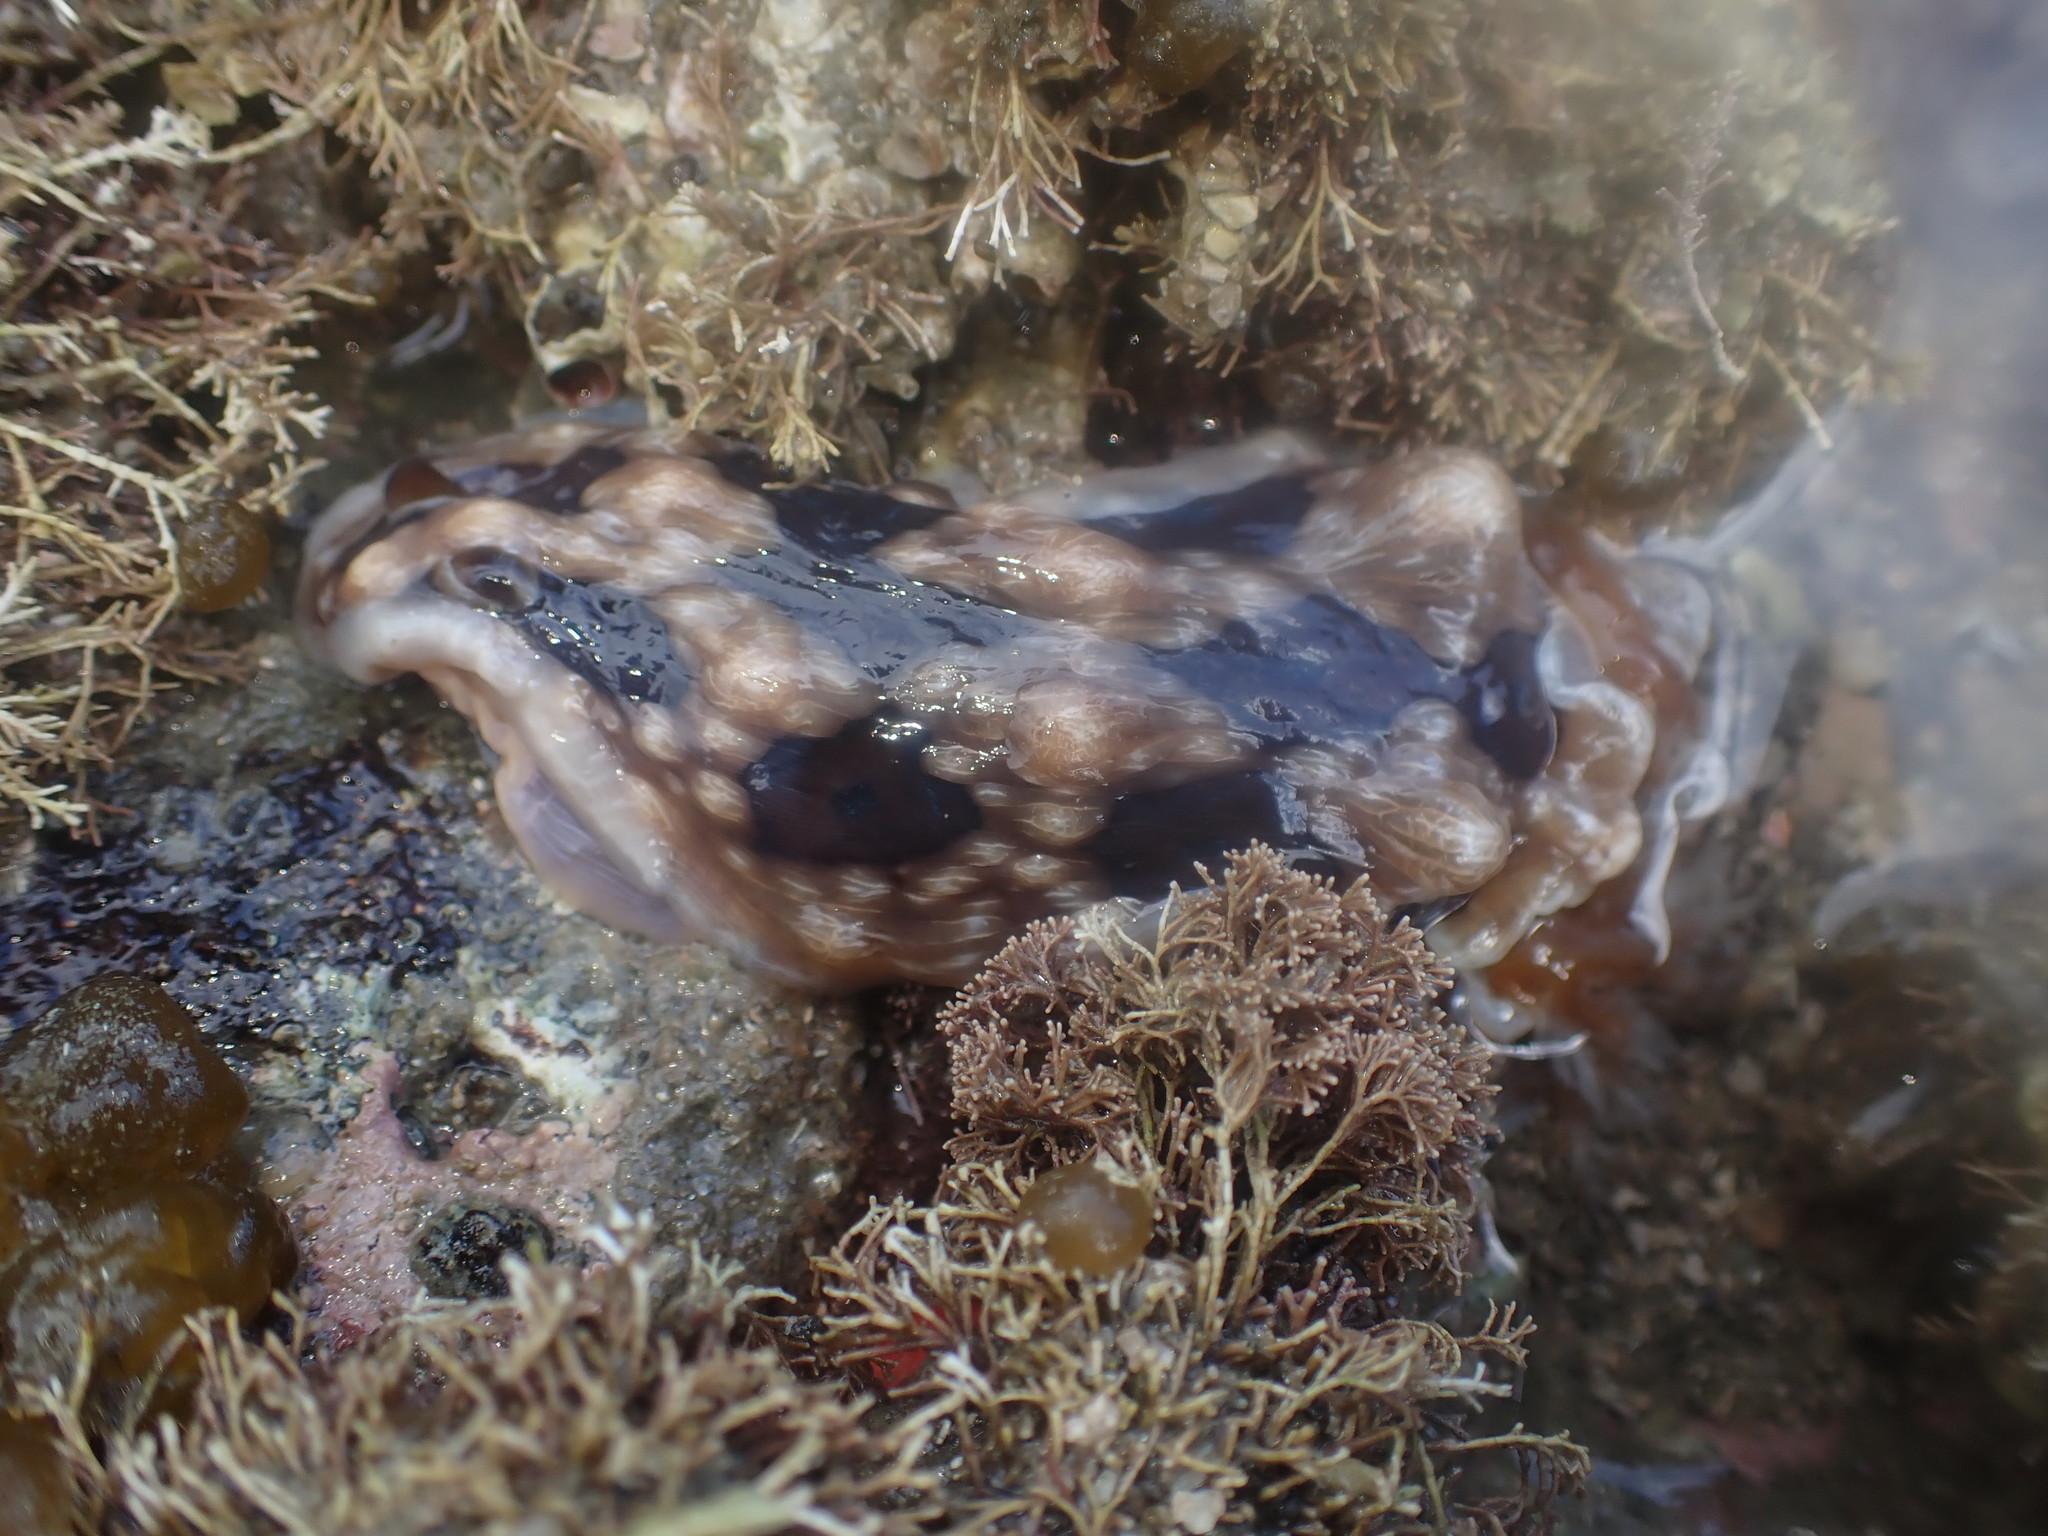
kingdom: Animalia
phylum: Mollusca
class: Gastropoda
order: Nudibranchia
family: Dendrodorididae
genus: Dendrodoris
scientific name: Dendrodoris krusensternii
